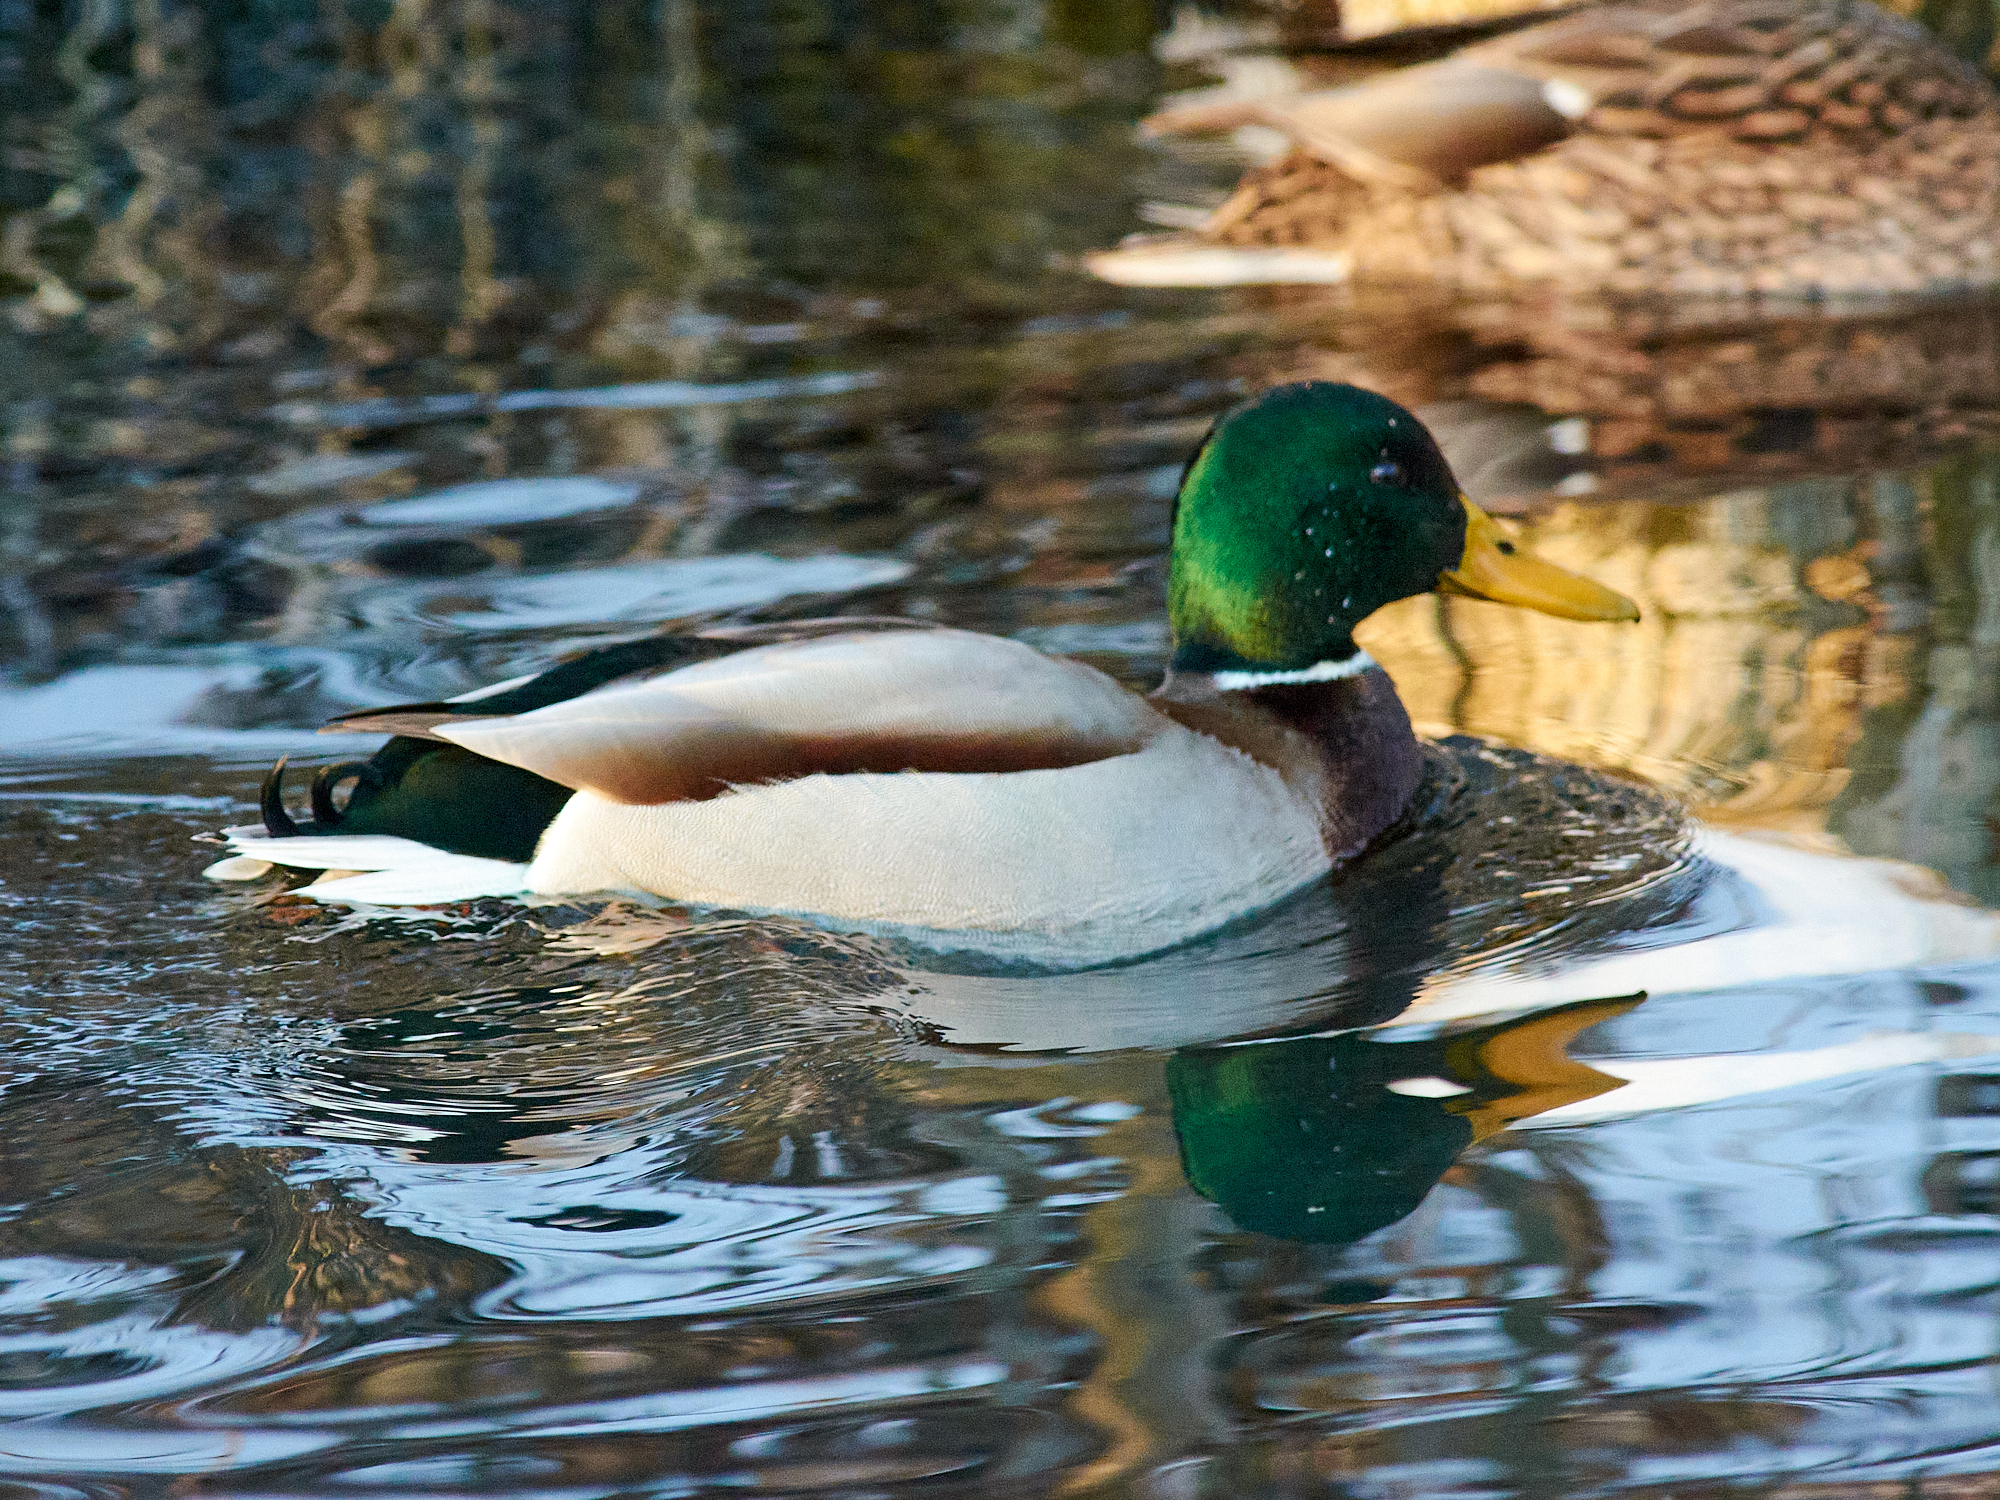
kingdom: Animalia
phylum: Chordata
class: Aves
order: Anseriformes
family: Anatidae
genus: Anas
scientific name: Anas platyrhynchos
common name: Mallard
